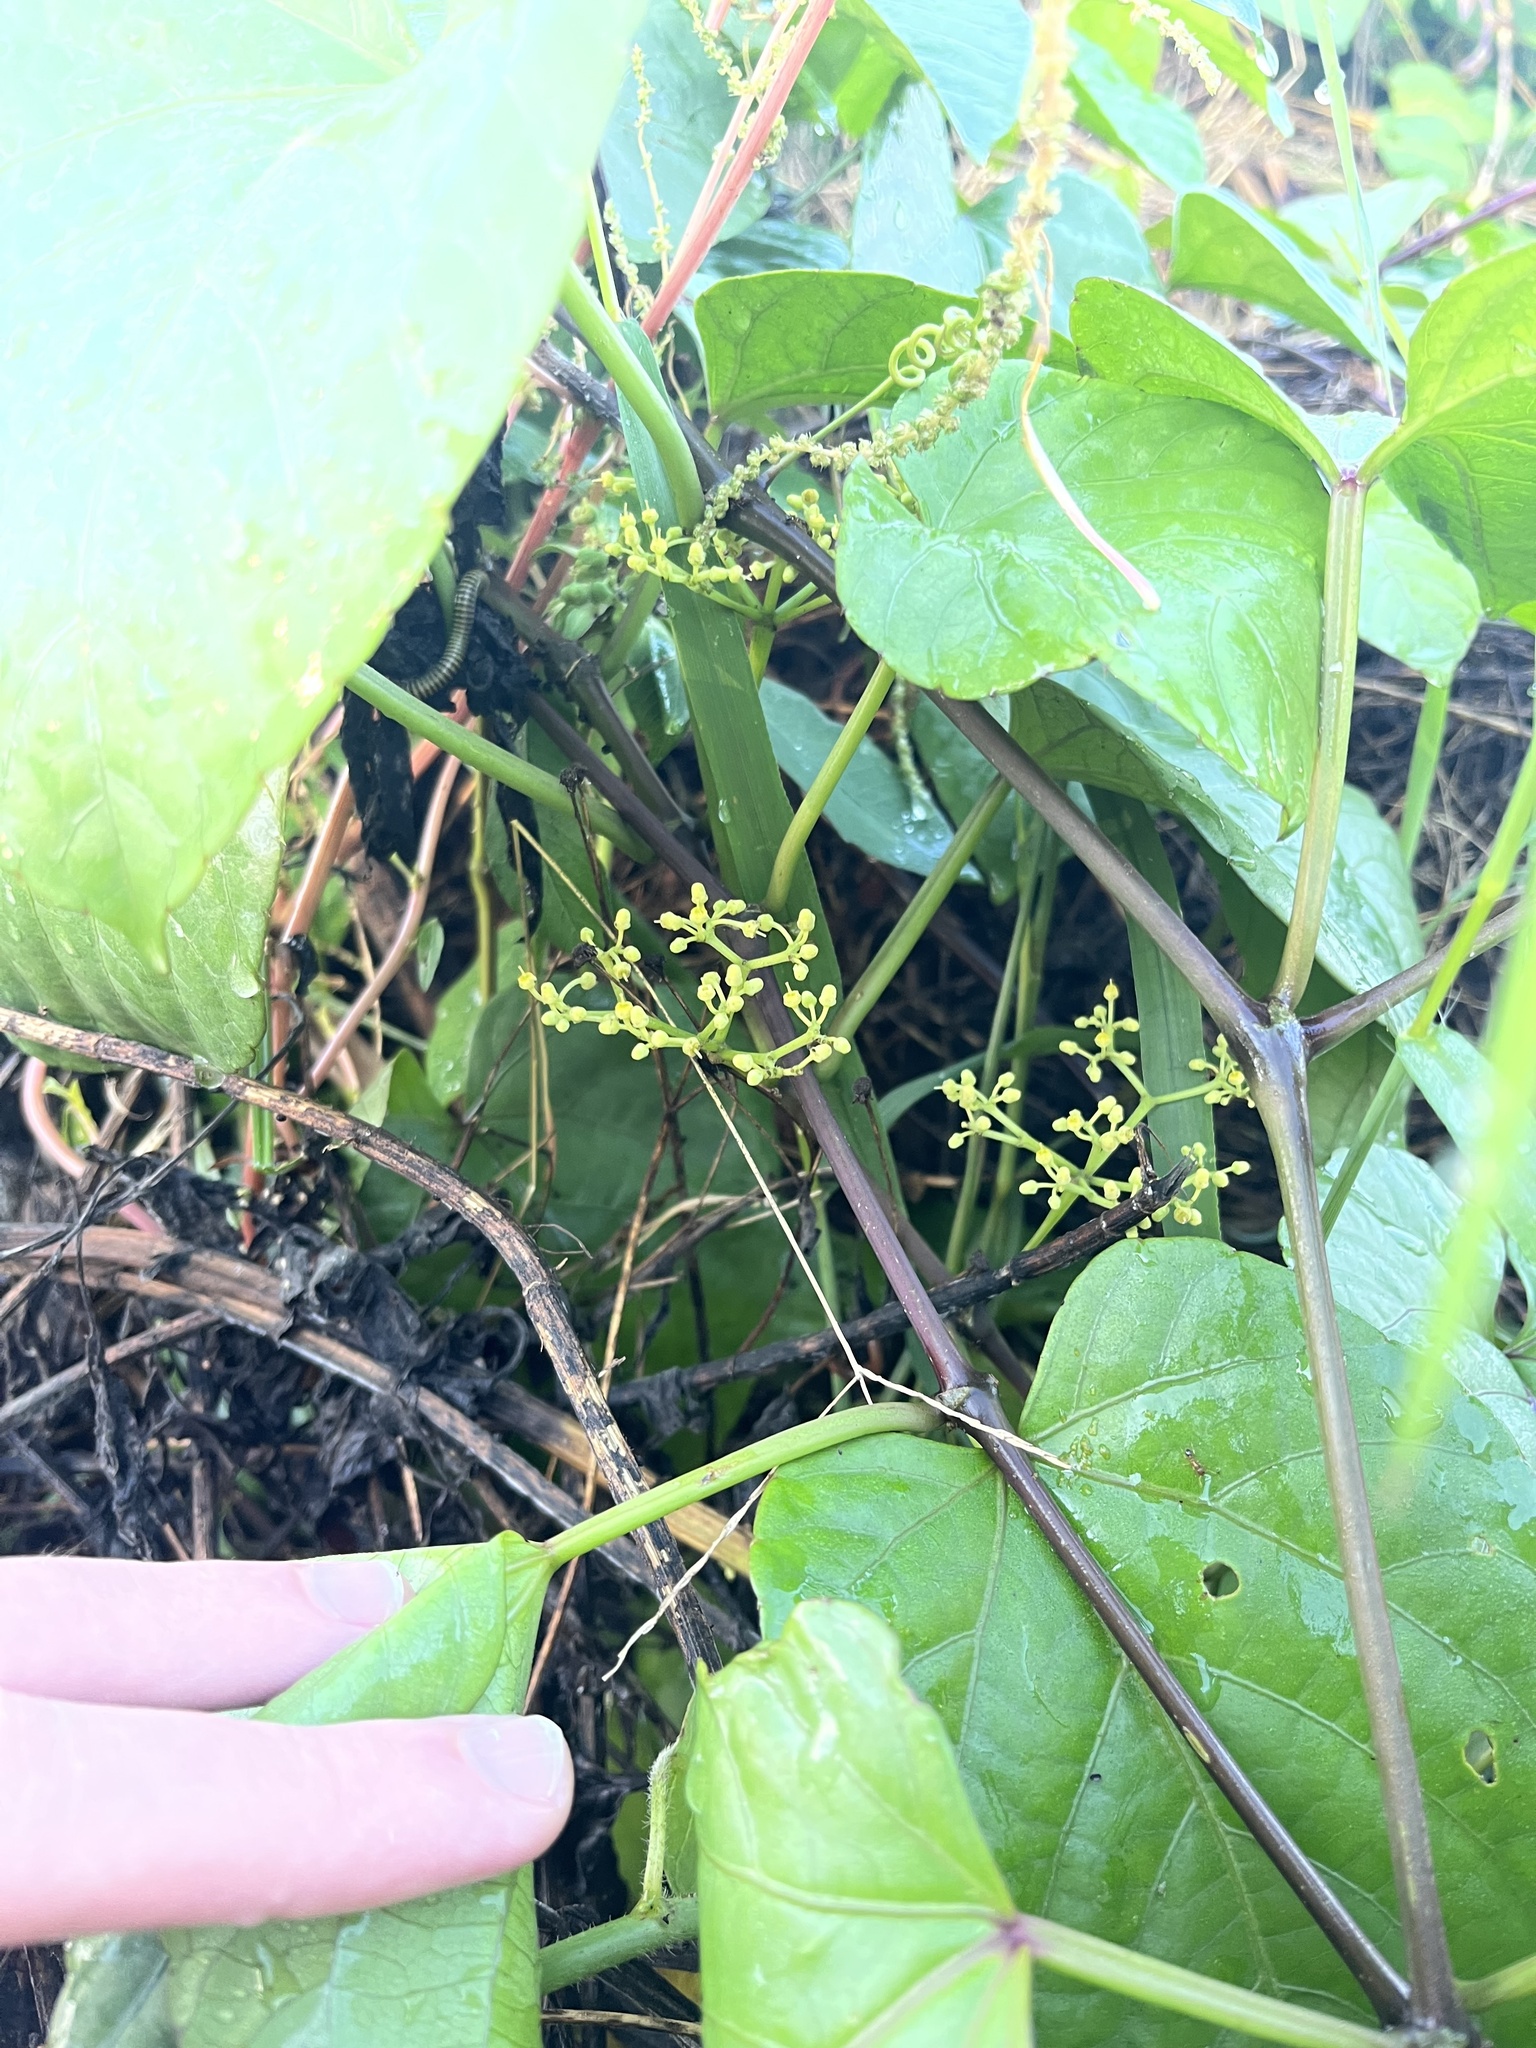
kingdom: Plantae
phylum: Tracheophyta
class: Magnoliopsida
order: Vitales
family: Vitaceae
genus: Cissus
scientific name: Cissus verticillata
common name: Princess vine
